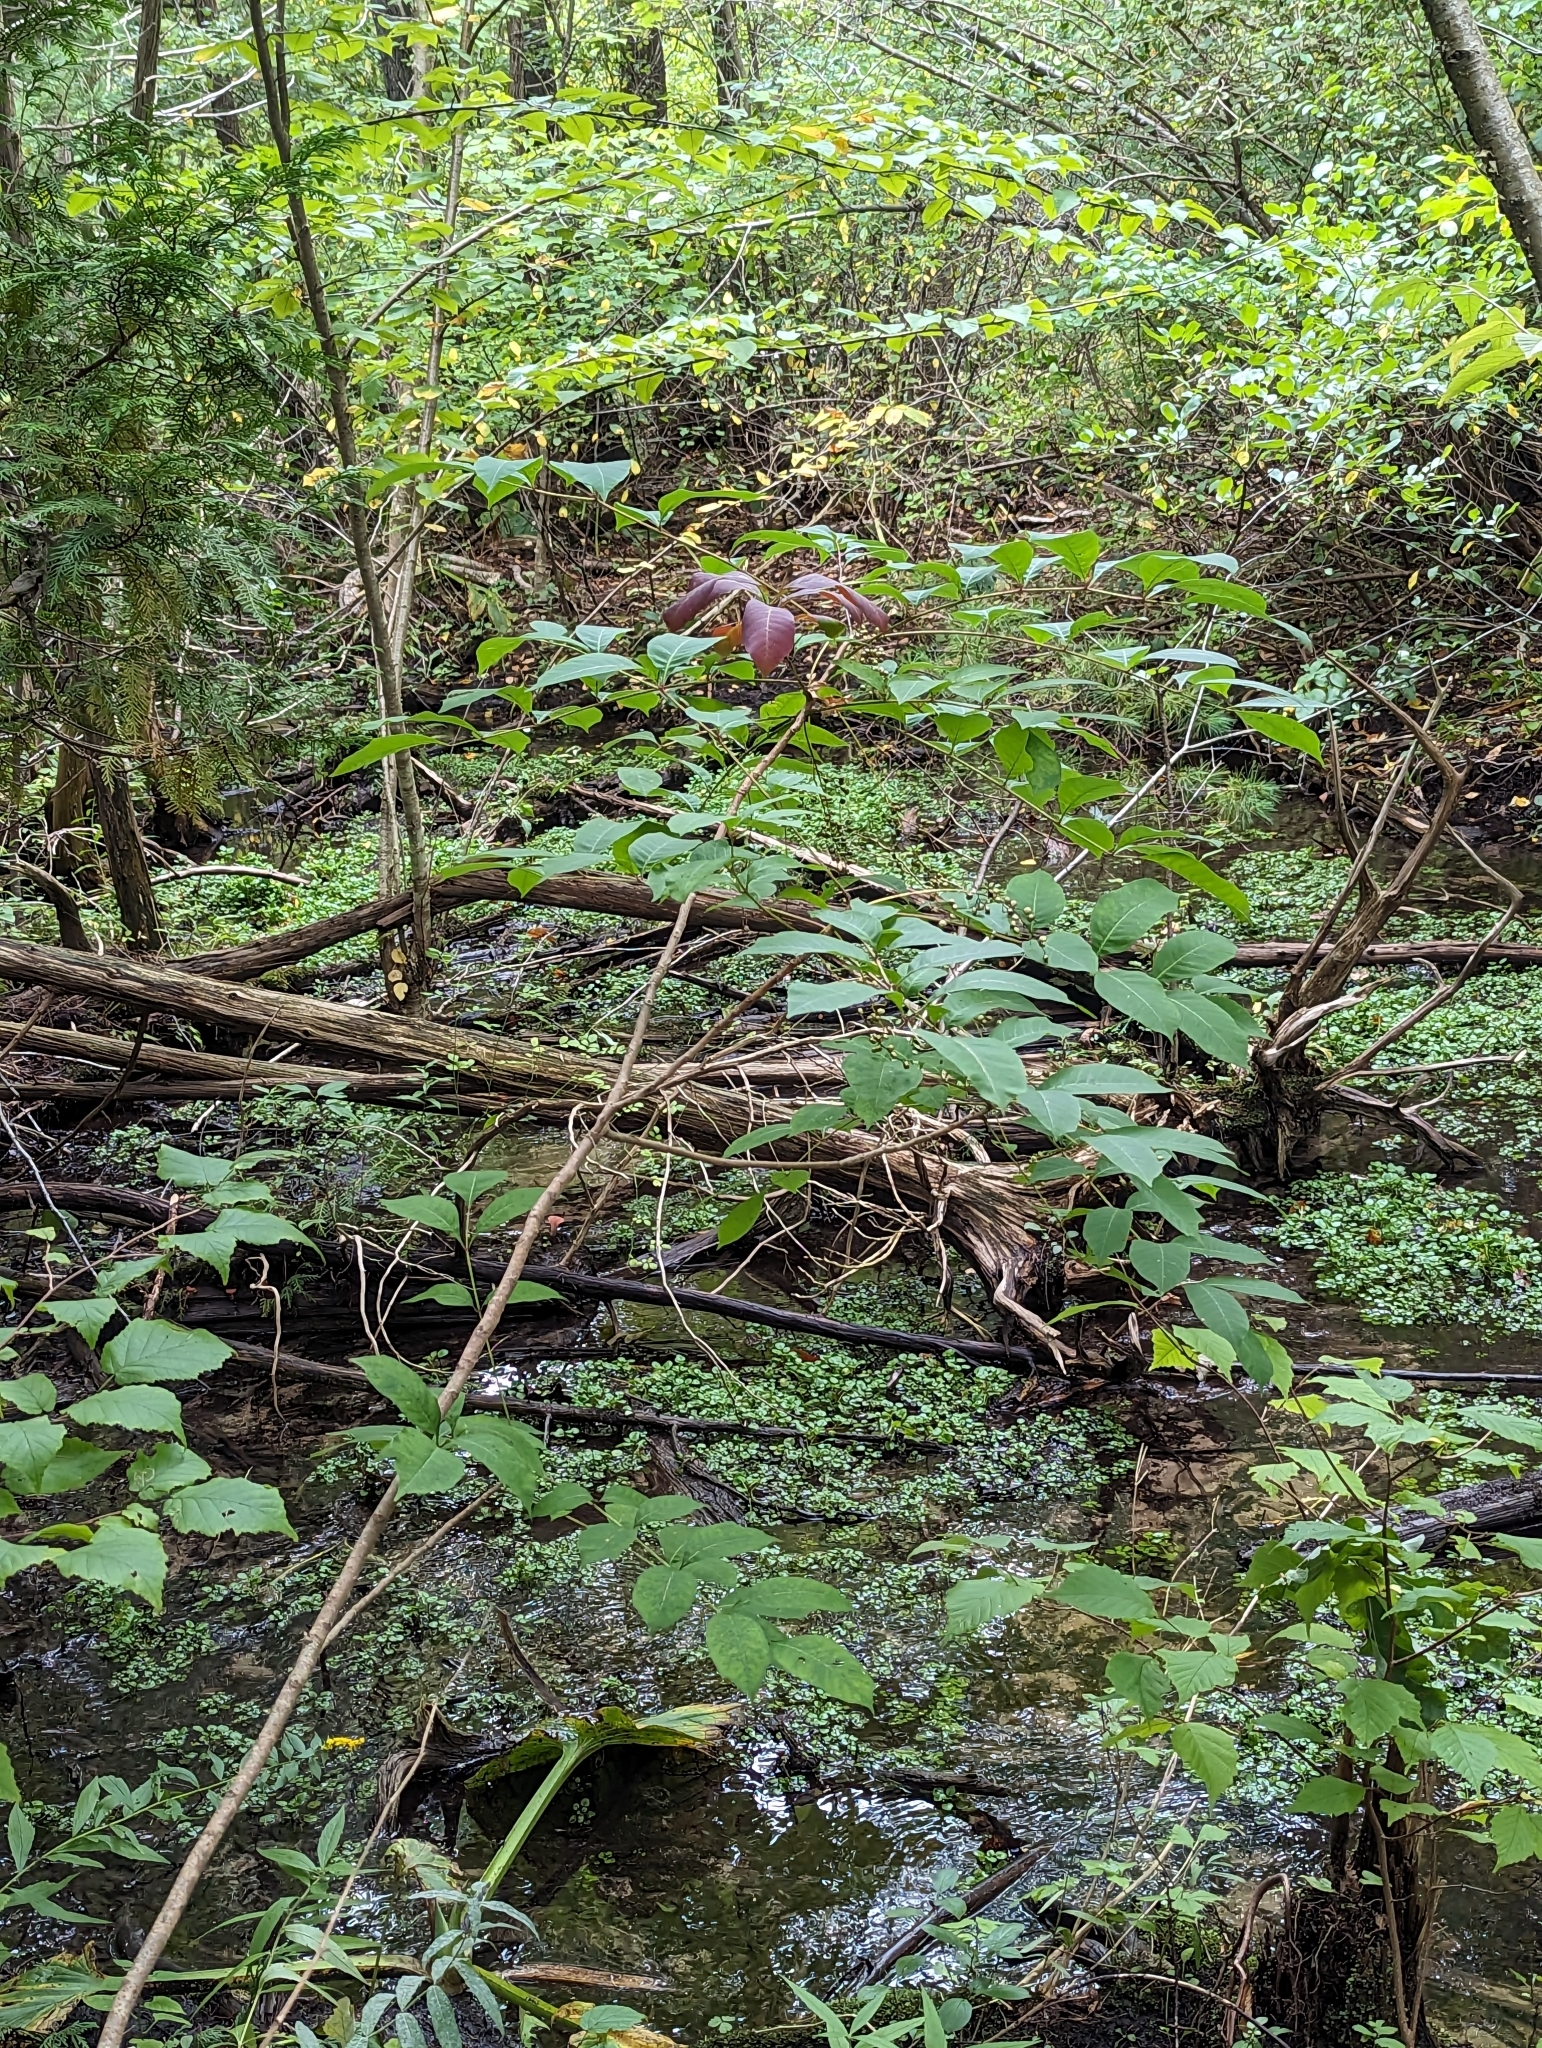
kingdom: Plantae
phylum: Tracheophyta
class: Magnoliopsida
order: Sapindales
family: Anacardiaceae
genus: Toxicodendron
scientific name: Toxicodendron vernix
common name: Poison sumac
